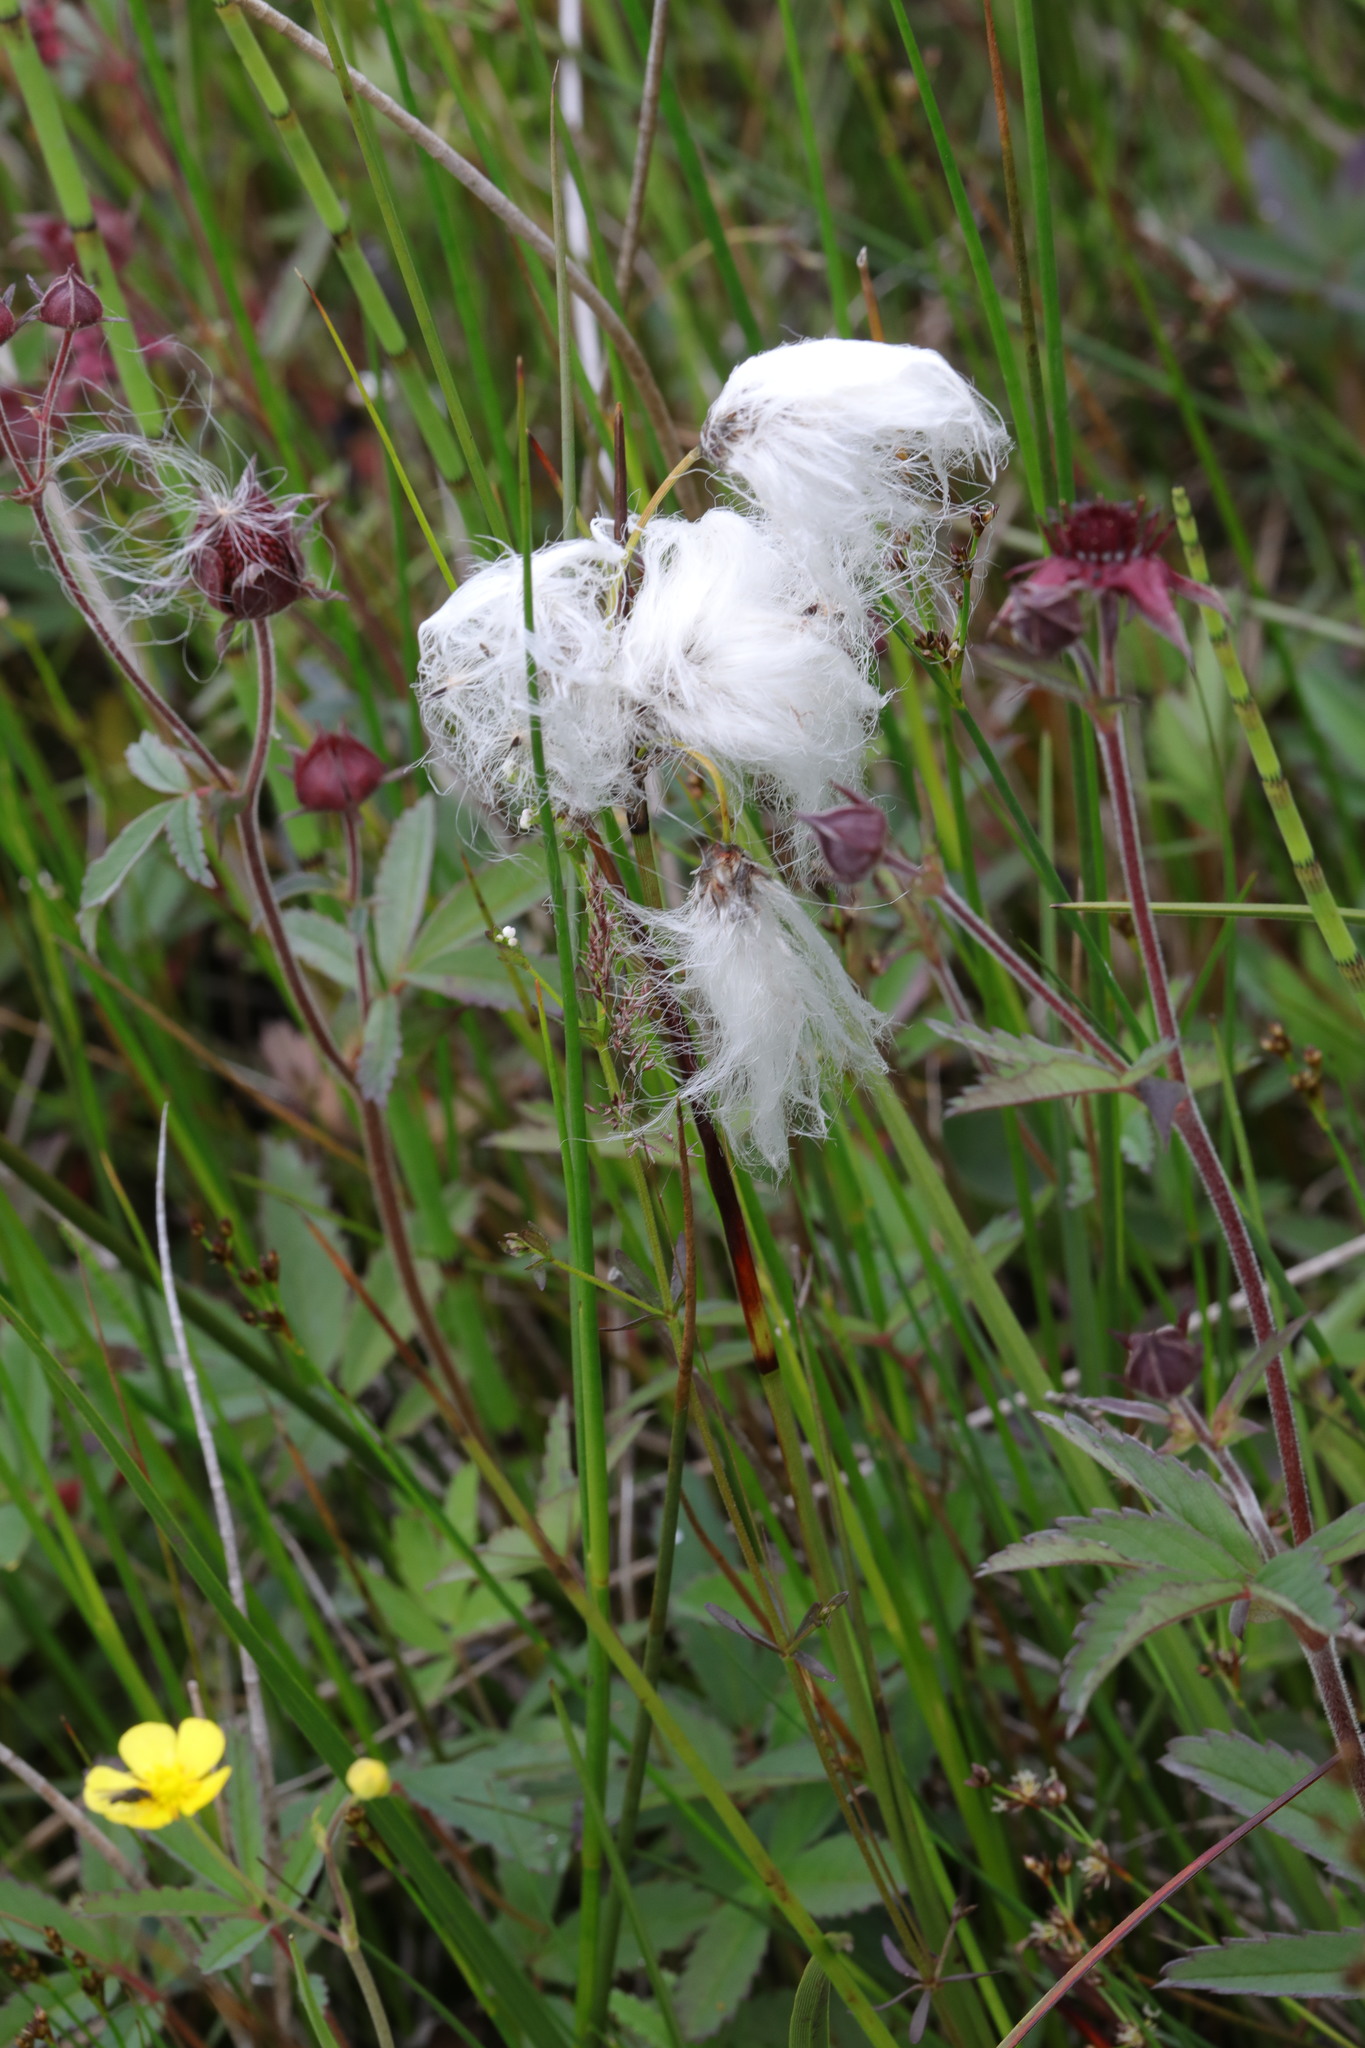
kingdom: Plantae
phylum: Tracheophyta
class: Liliopsida
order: Poales
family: Cyperaceae
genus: Eriophorum
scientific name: Eriophorum angustifolium
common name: Common cottongrass
